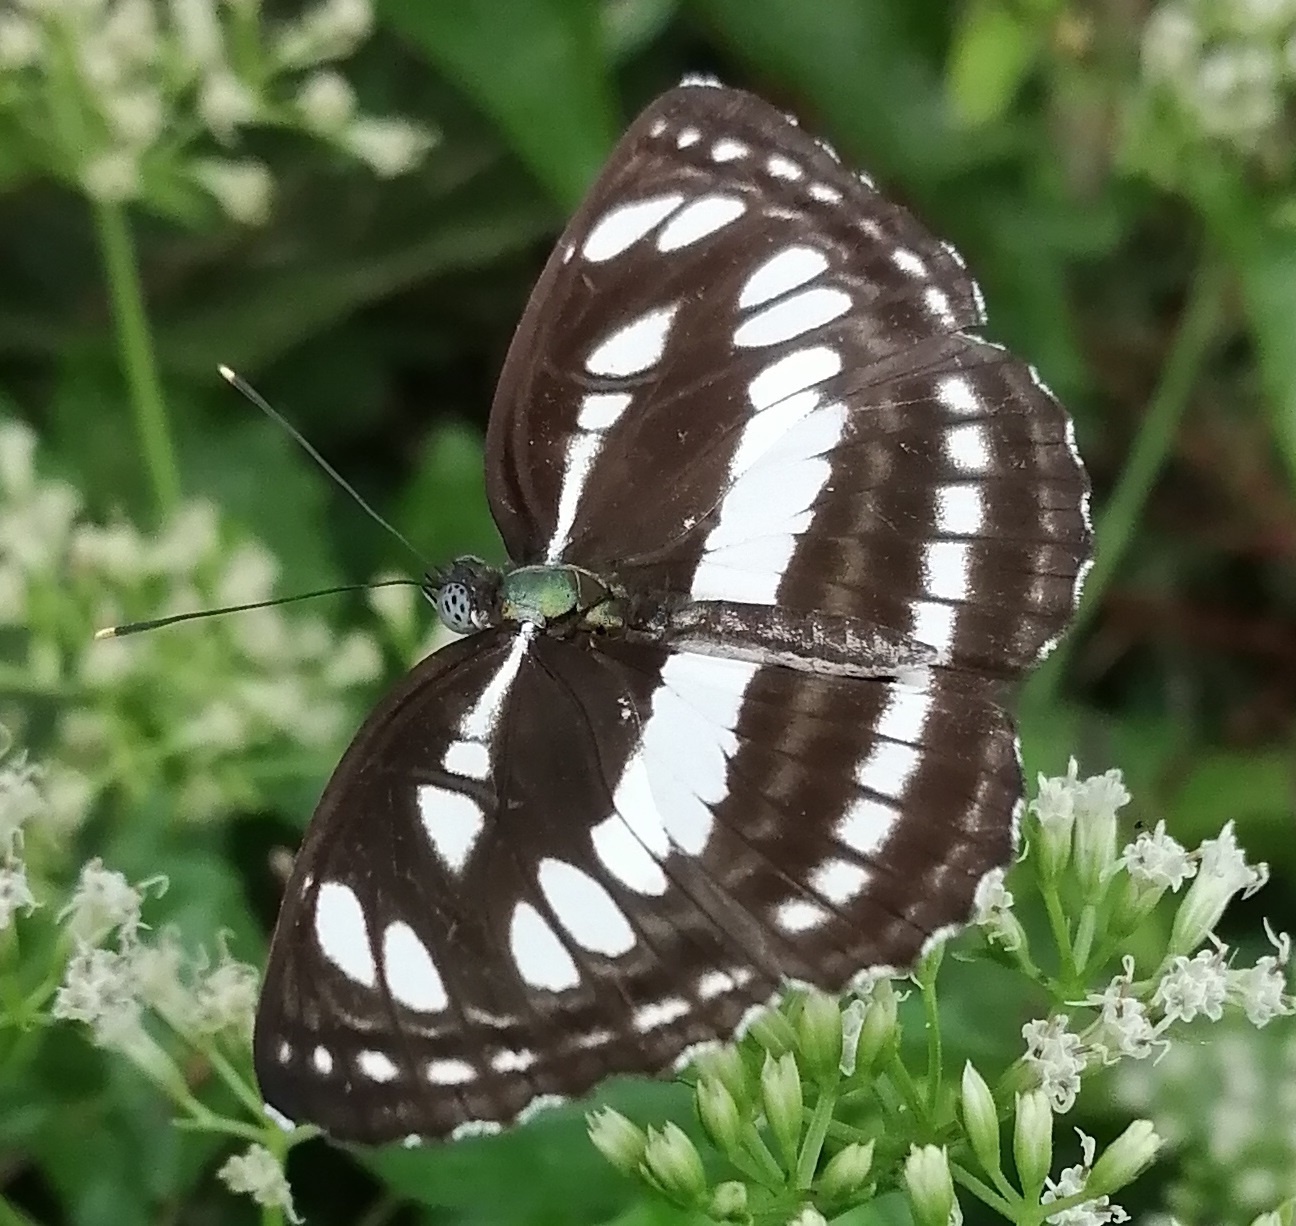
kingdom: Animalia
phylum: Arthropoda
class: Insecta
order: Lepidoptera
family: Nymphalidae
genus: Neptis
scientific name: Neptis hylas
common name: Common sailer
